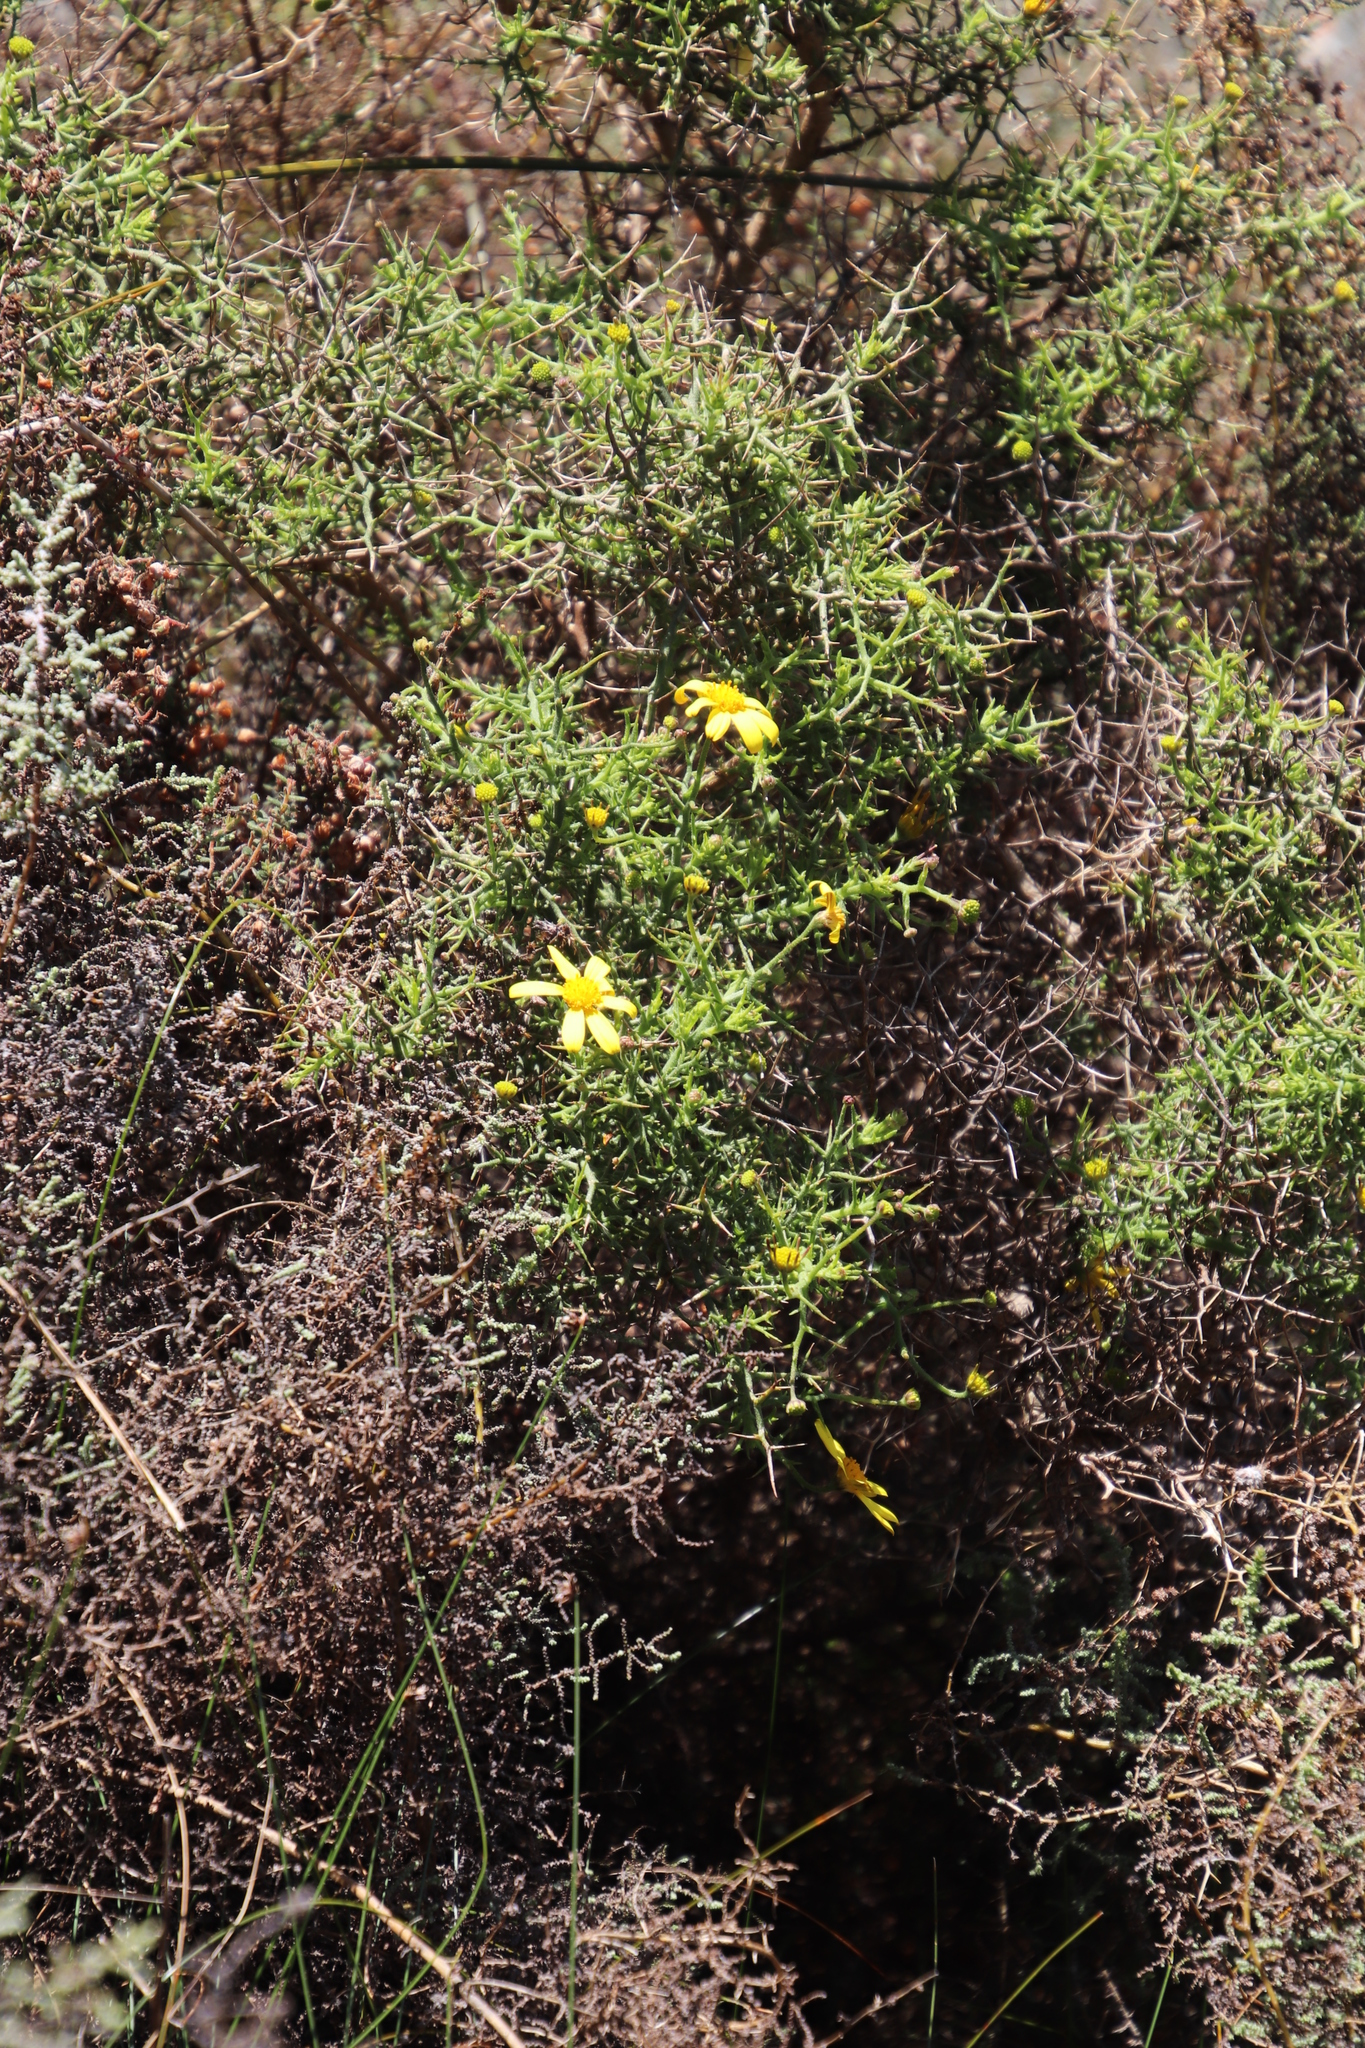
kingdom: Plantae
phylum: Tracheophyta
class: Magnoliopsida
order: Asterales
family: Asteraceae
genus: Osteospermum
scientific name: Osteospermum spinosum
